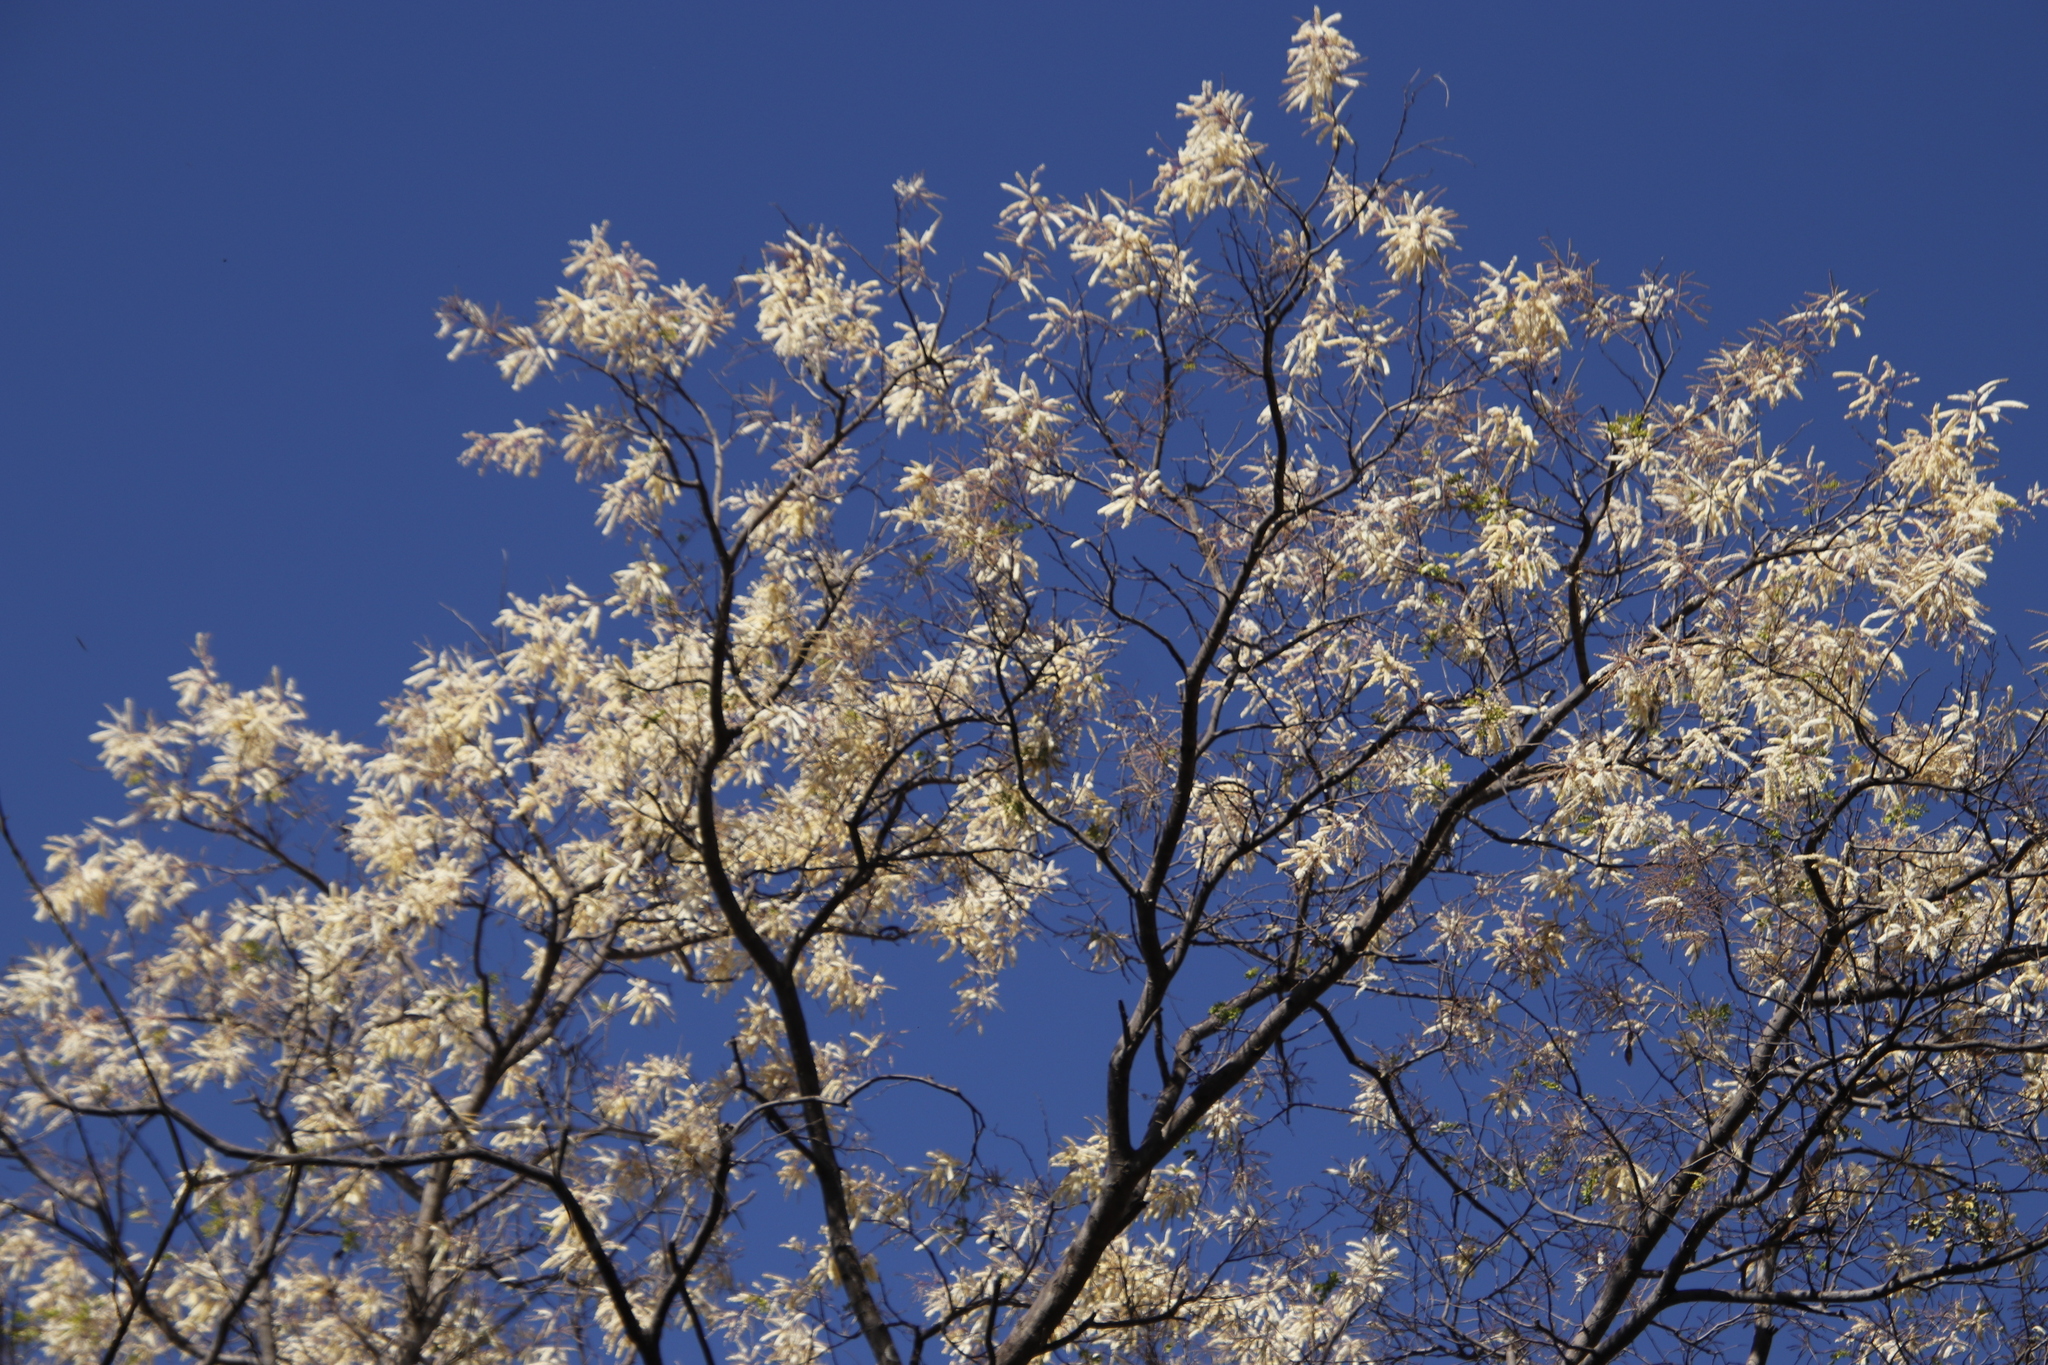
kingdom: Plantae
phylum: Tracheophyta
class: Magnoliopsida
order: Fabales
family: Fabaceae
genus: Senegalia
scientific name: Senegalia nigrescens
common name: Knobthorn
